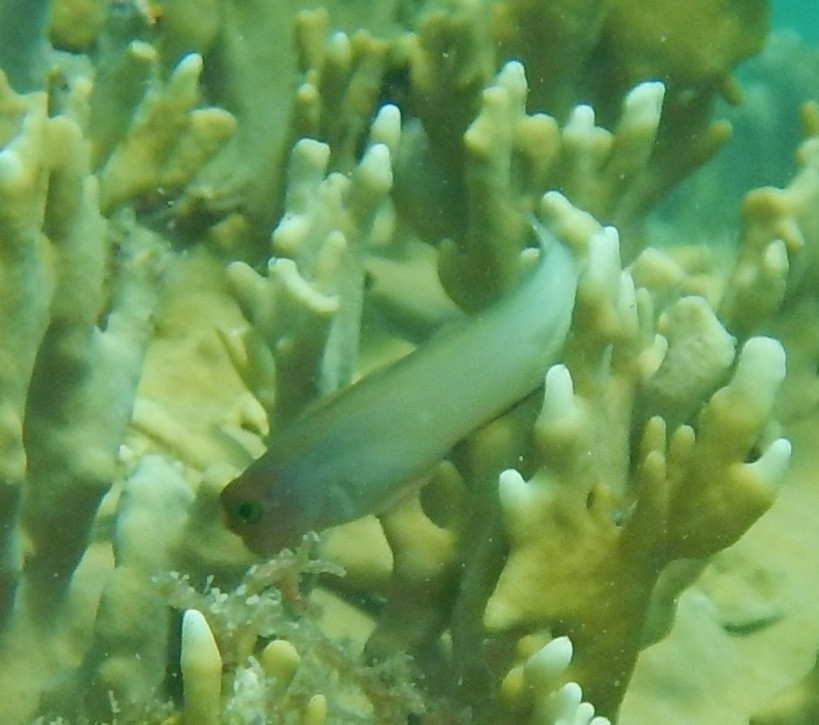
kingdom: Animalia
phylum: Chordata
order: Perciformes
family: Blenniidae
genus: Ophioblennius
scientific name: Ophioblennius macclurei
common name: Redlip blenny
